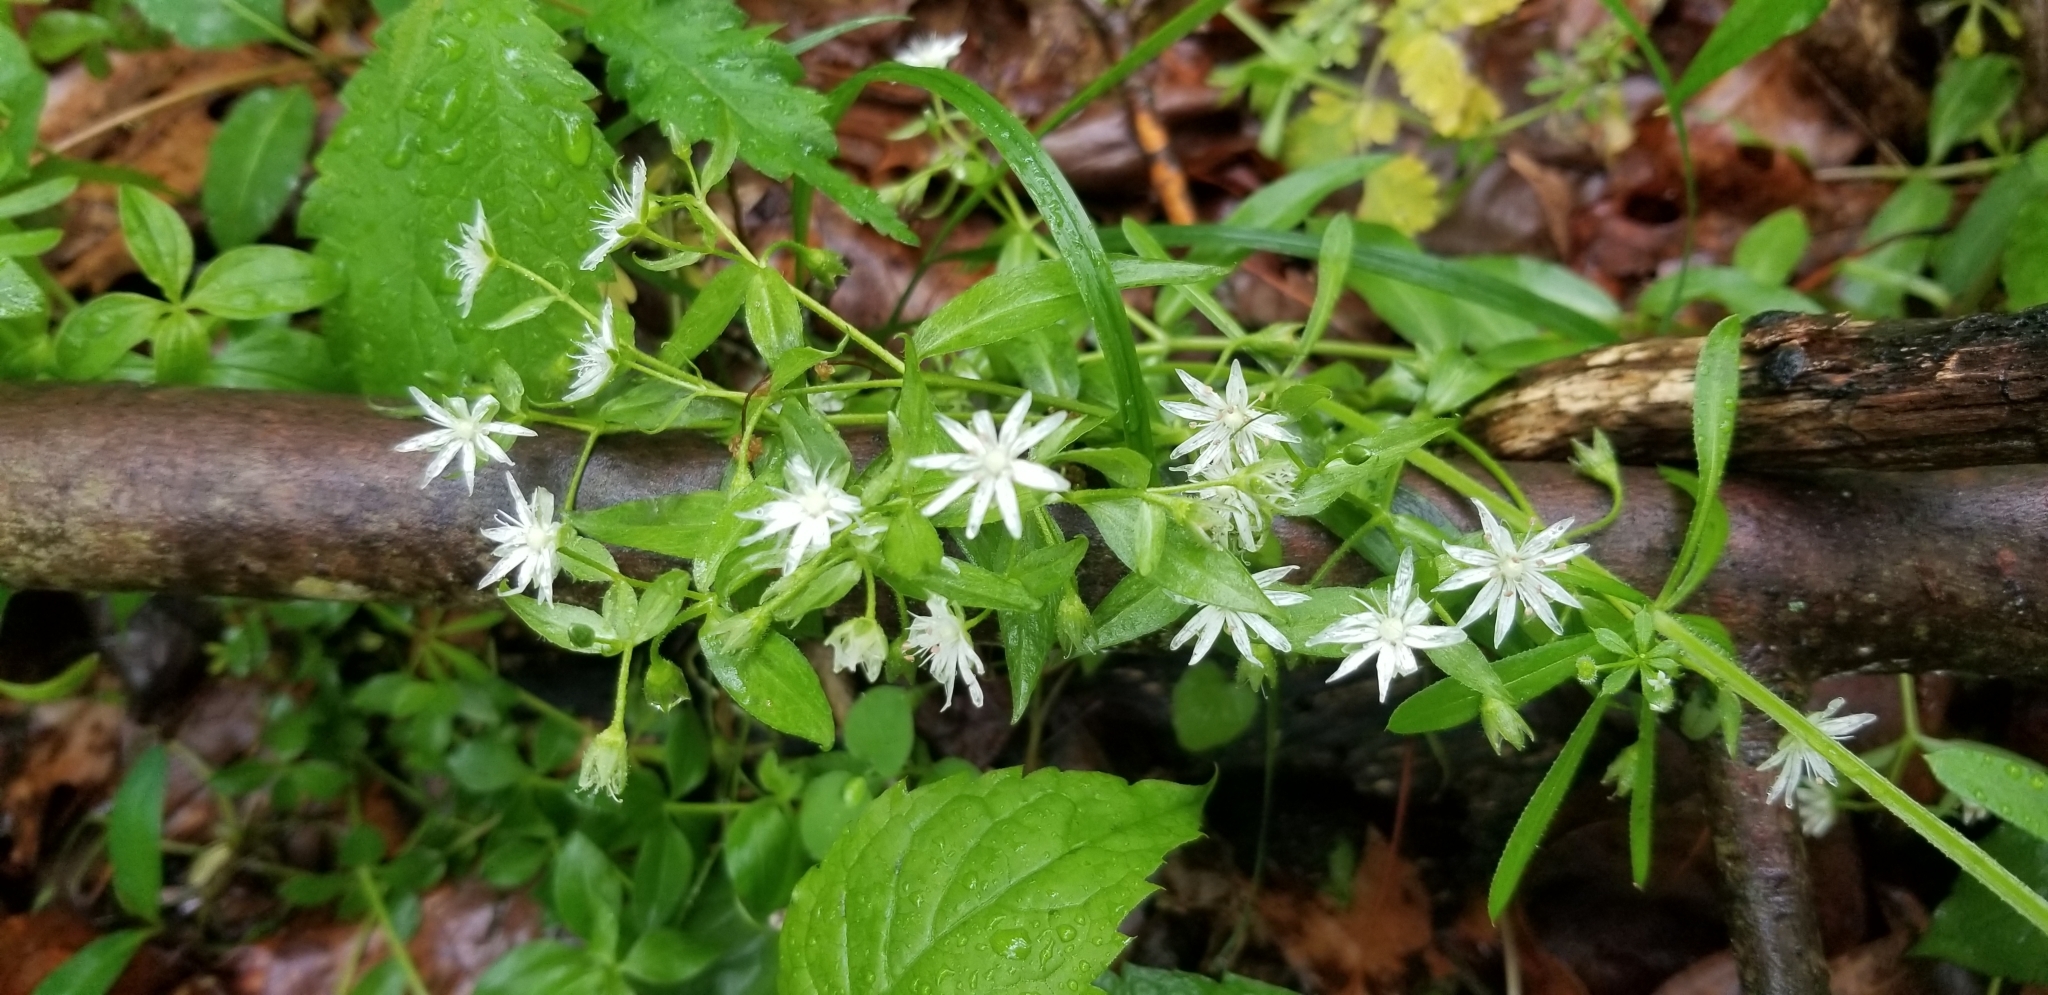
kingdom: Plantae
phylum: Tracheophyta
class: Magnoliopsida
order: Caryophyllales
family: Caryophyllaceae
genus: Stellaria
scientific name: Stellaria pubera
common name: Star chickweed
